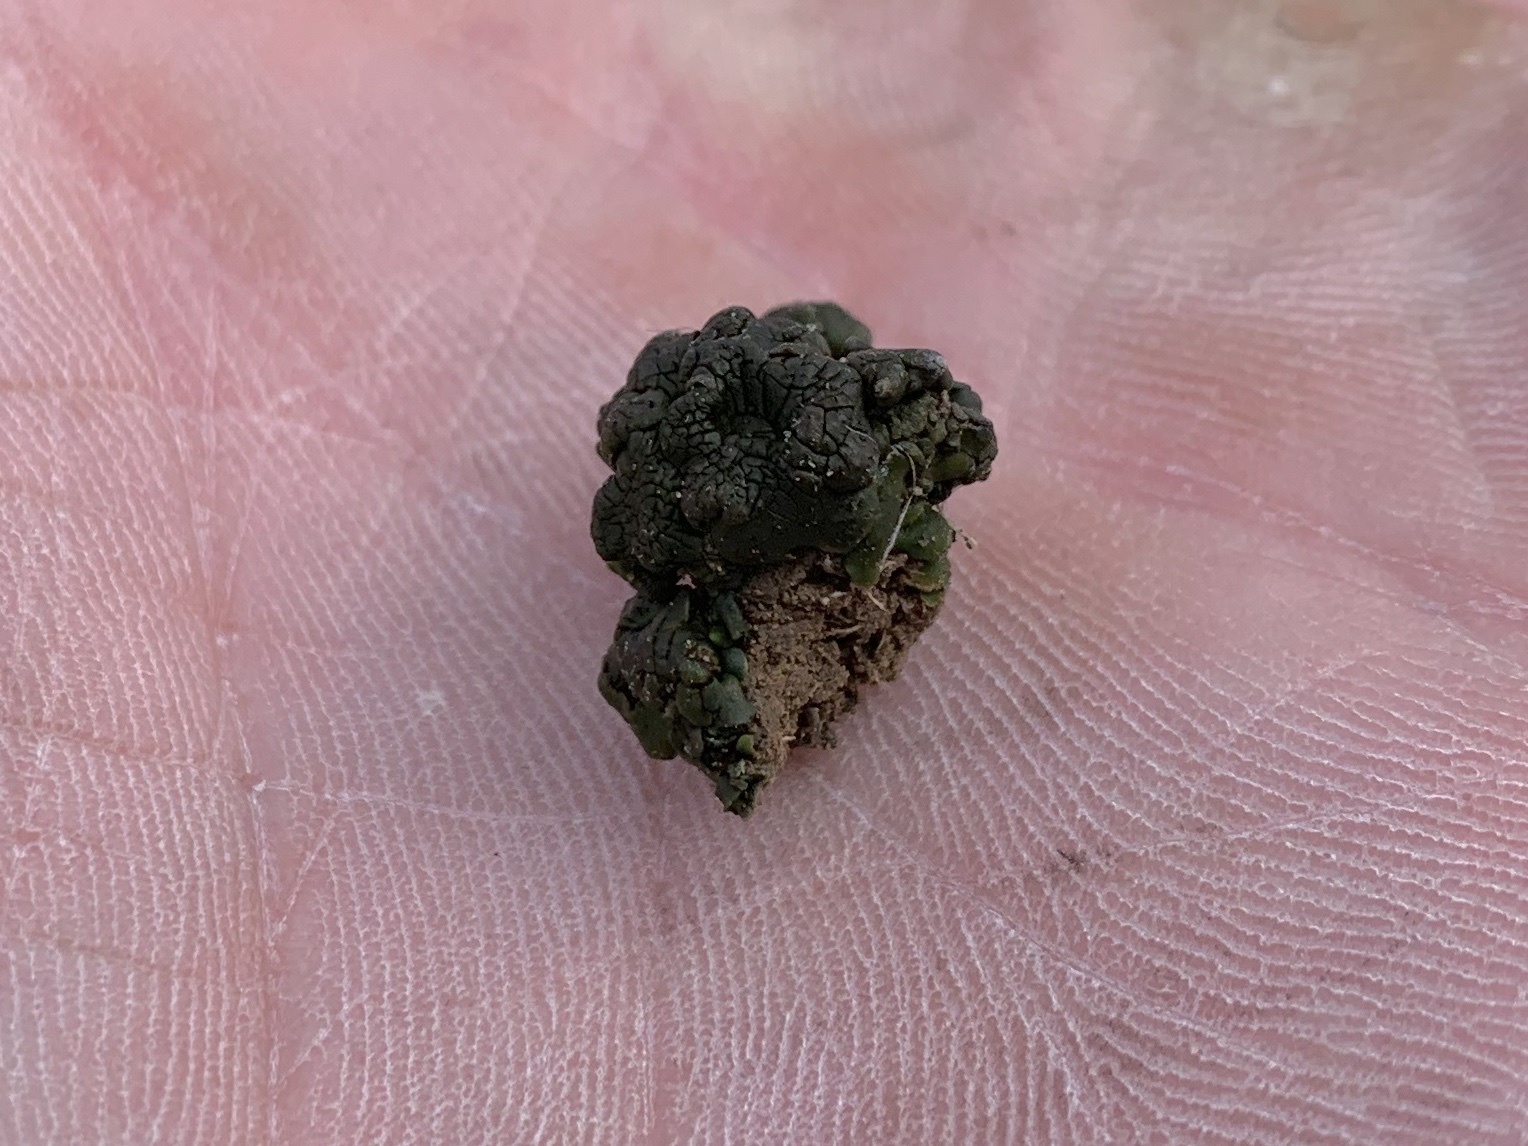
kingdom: Fungi
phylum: Ascomycota
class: Eurotiomycetes
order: Verrucariales
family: Verrucariaceae
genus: Clavascidium
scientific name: Clavascidium lacinulatum
